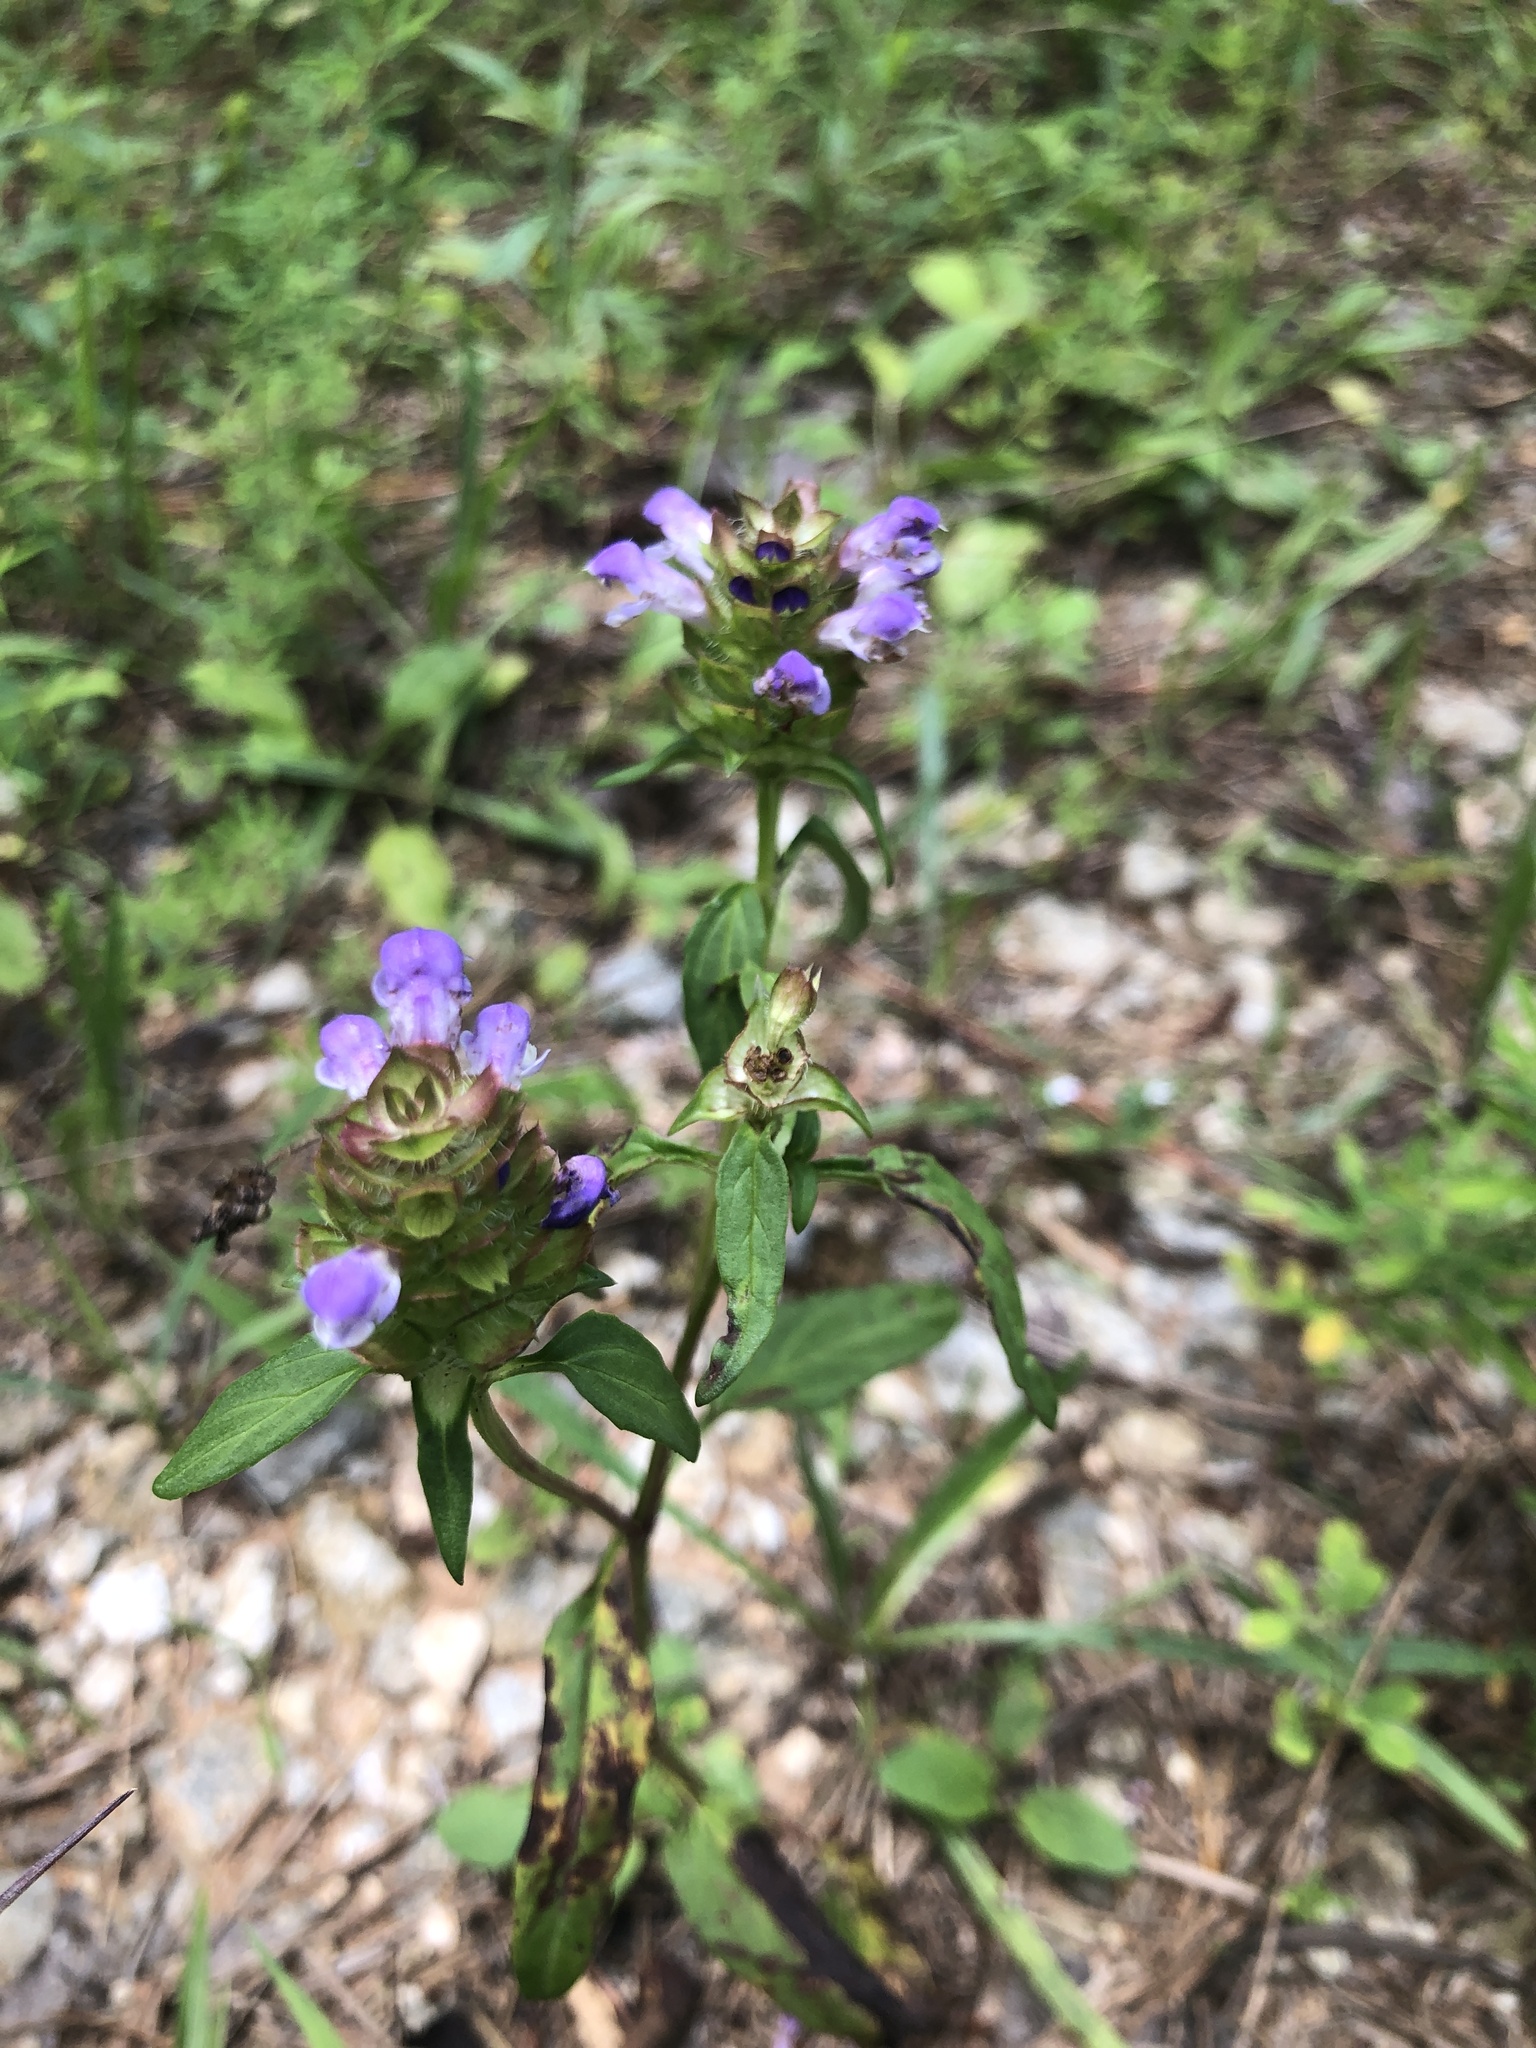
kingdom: Plantae
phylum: Tracheophyta
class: Magnoliopsida
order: Lamiales
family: Lamiaceae
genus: Prunella
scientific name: Prunella vulgaris
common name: Heal-all
